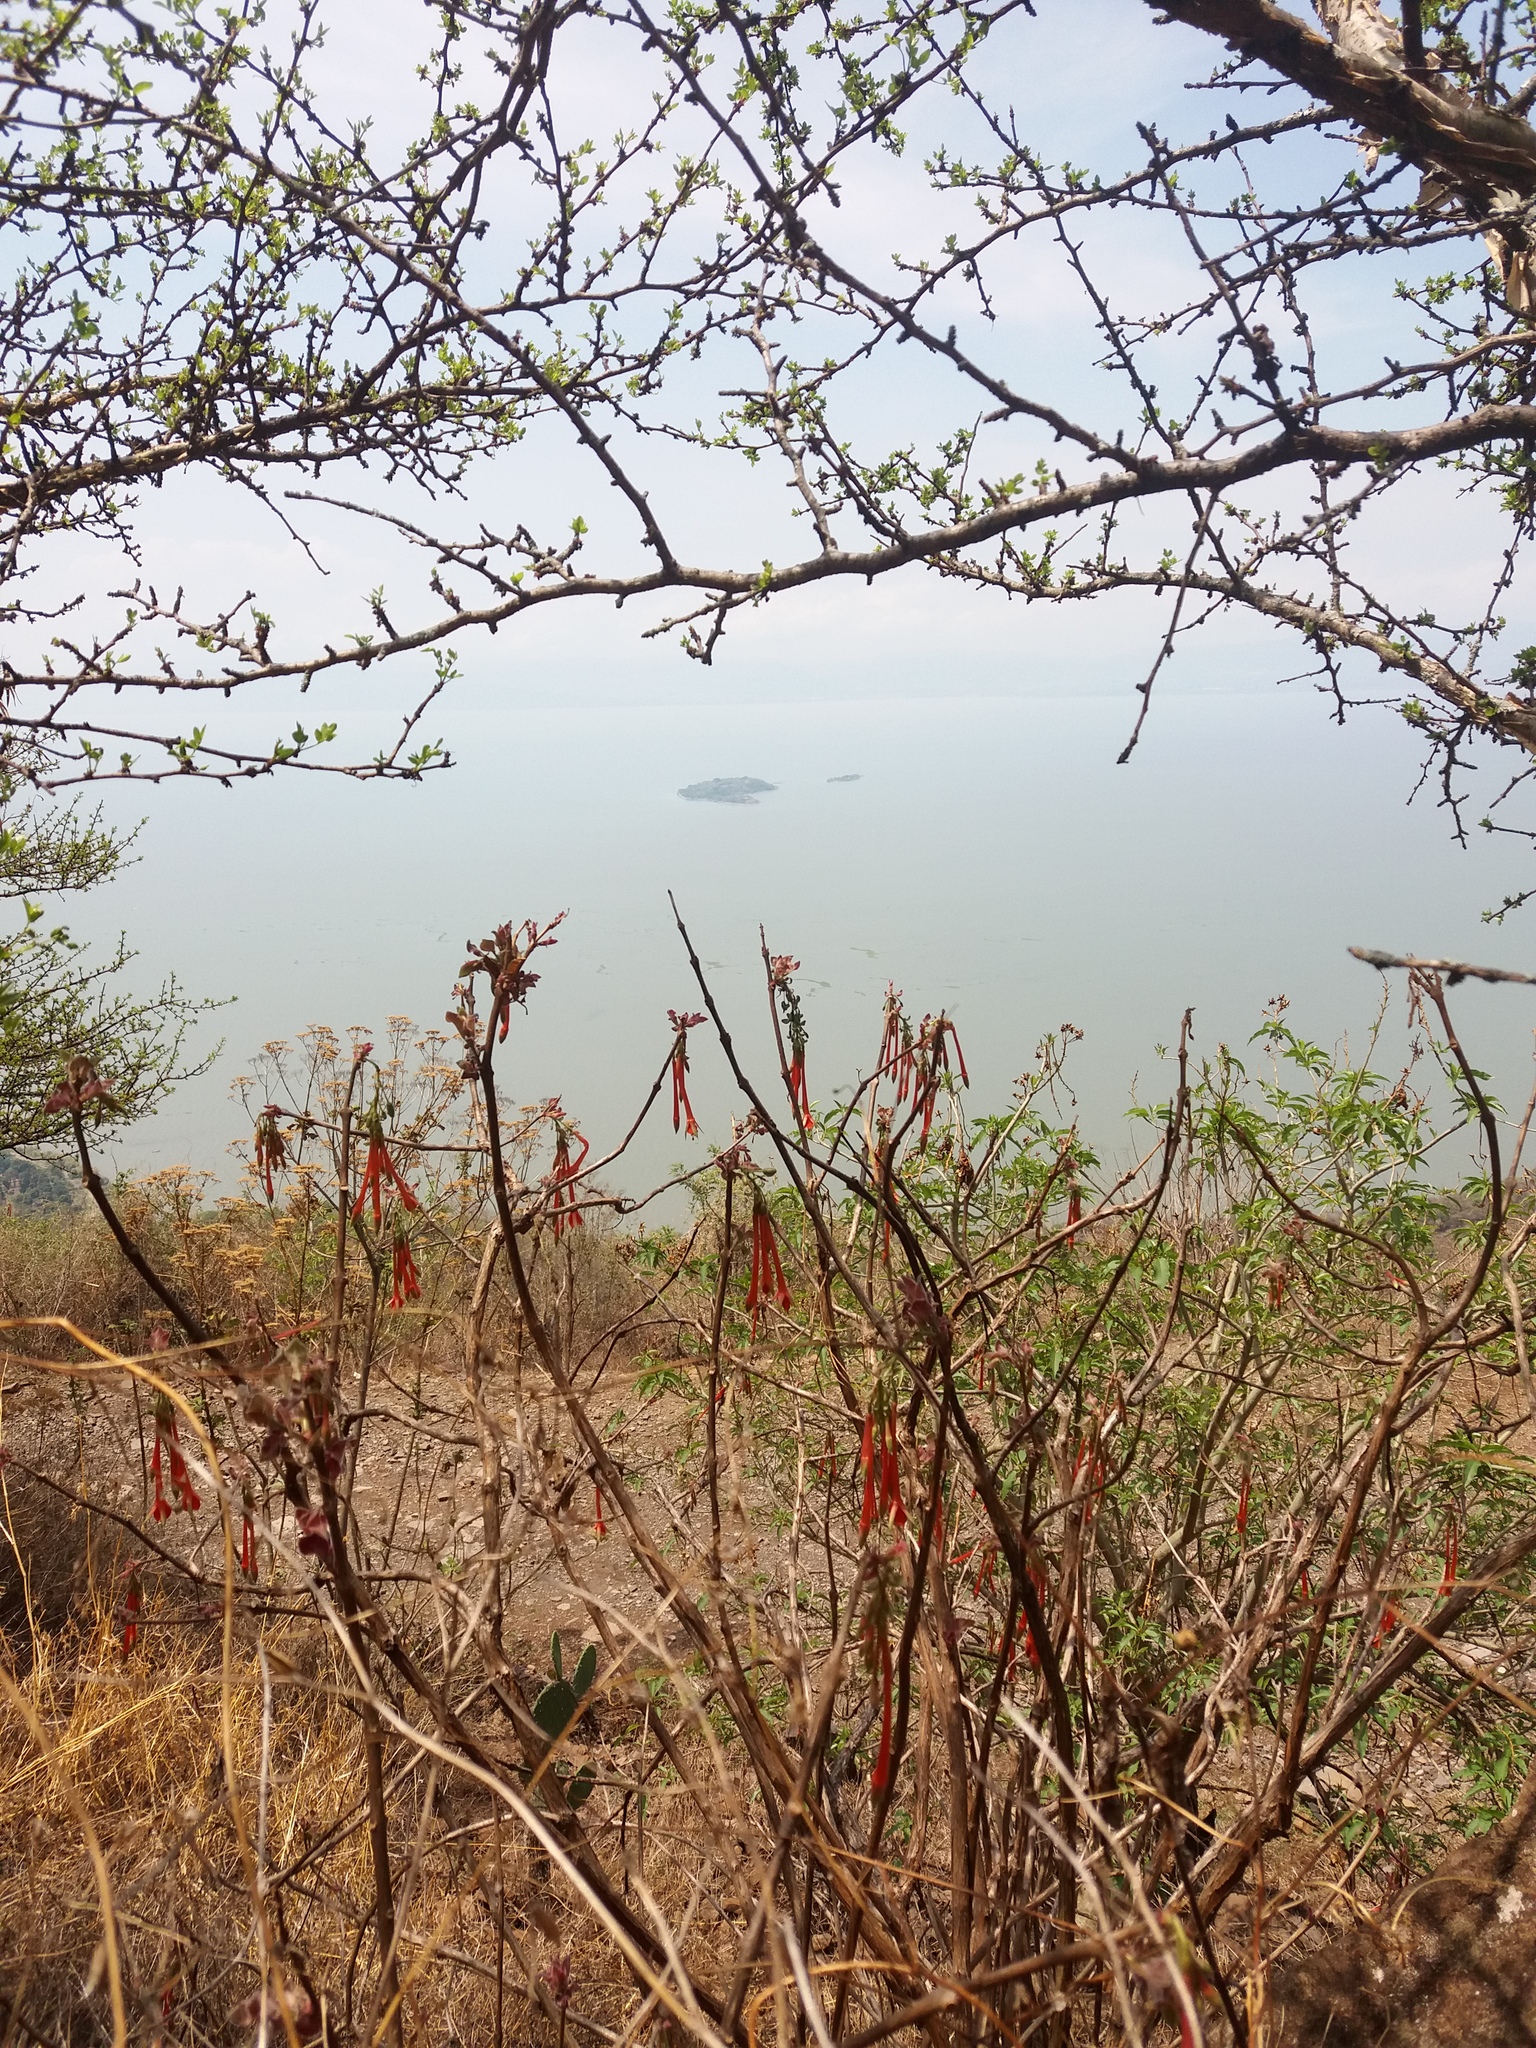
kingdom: Plantae
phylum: Tracheophyta
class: Magnoliopsida
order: Myrtales
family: Onagraceae
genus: Fuchsia
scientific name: Fuchsia fulgens
